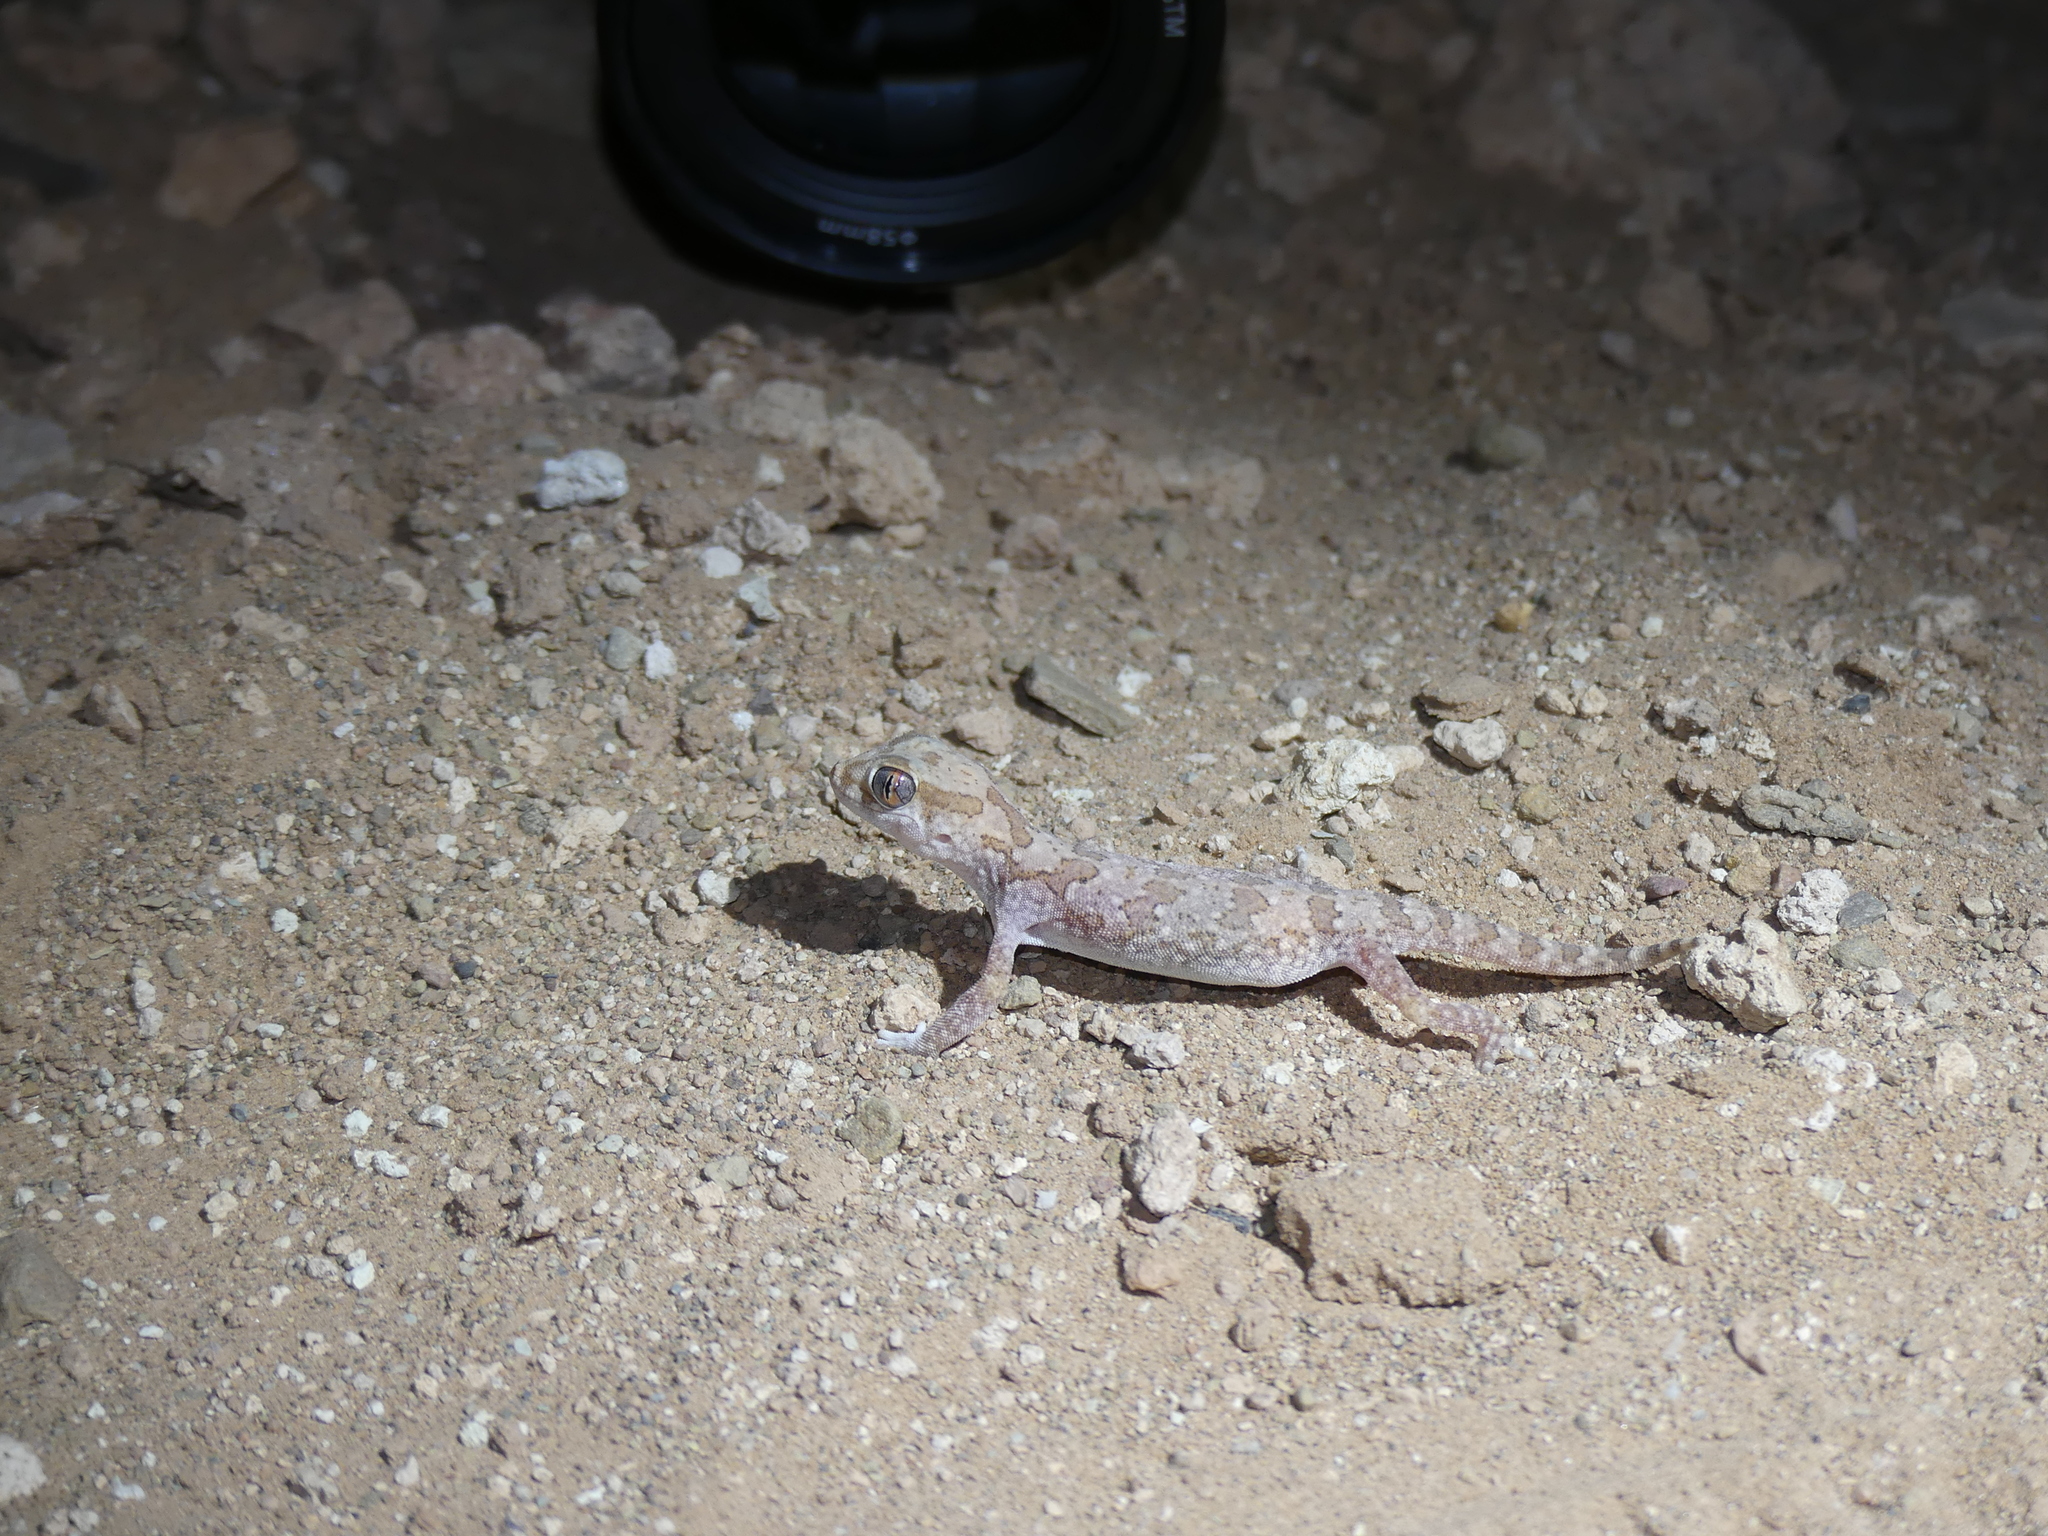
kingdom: Animalia
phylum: Chordata
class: Squamata
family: Gekkonidae
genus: Stenodactylus
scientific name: Stenodactylus mauritanicus
